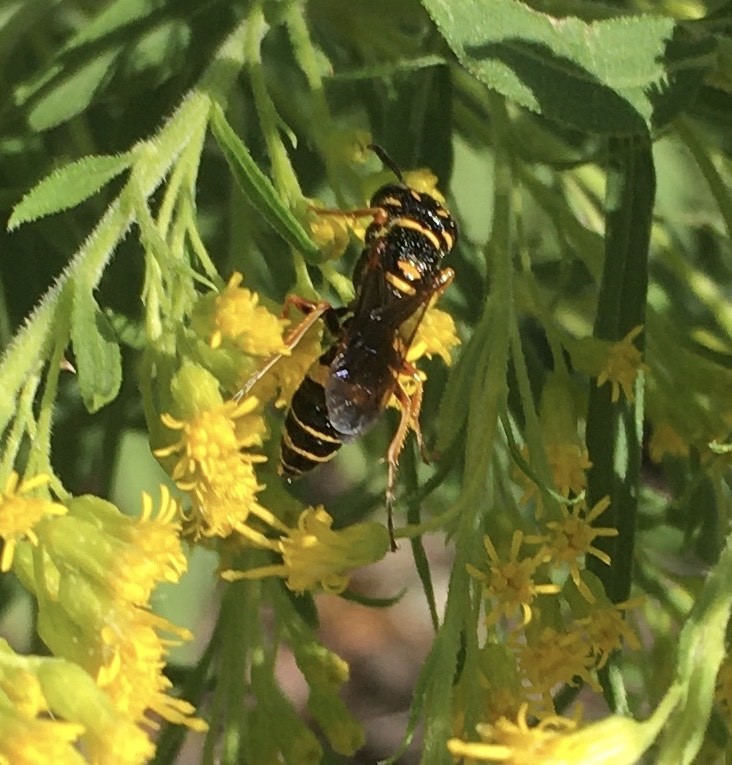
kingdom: Animalia
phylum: Arthropoda
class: Insecta
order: Hymenoptera
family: Crabronidae
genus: Philanthus
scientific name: Philanthus gibbosus
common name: Humped beewolf
